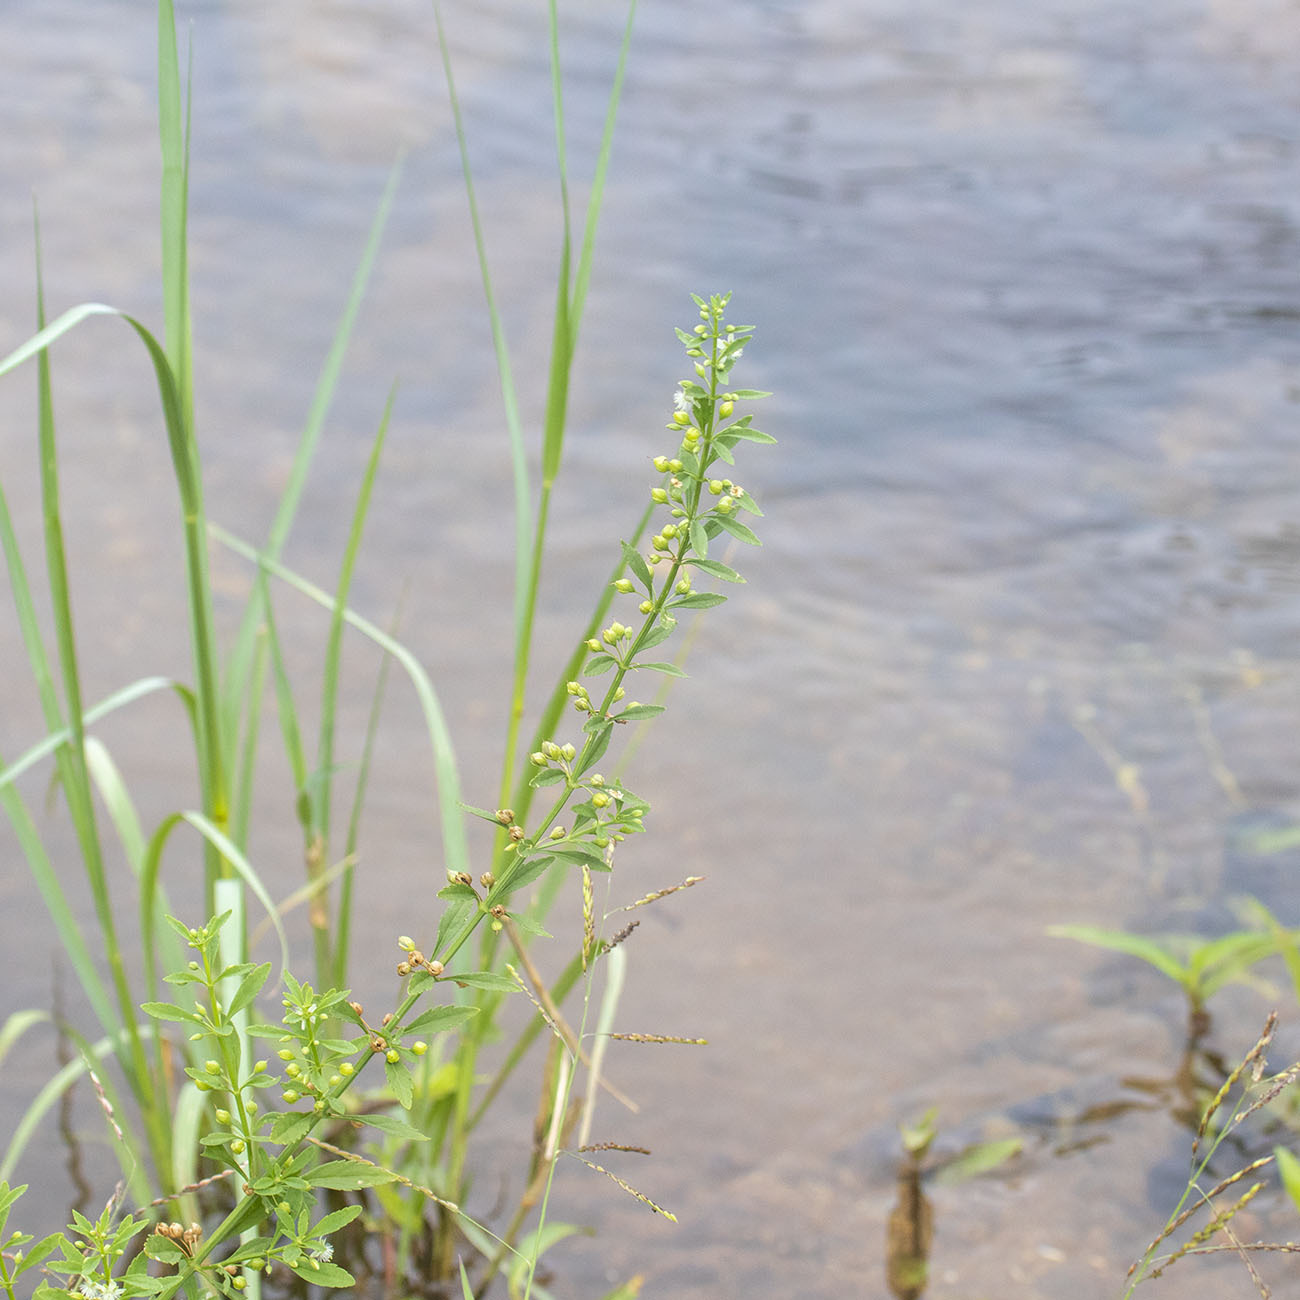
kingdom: Plantae
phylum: Tracheophyta
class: Magnoliopsida
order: Lamiales
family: Plantaginaceae
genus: Scoparia
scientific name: Scoparia dulcis
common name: Scoparia-weed
